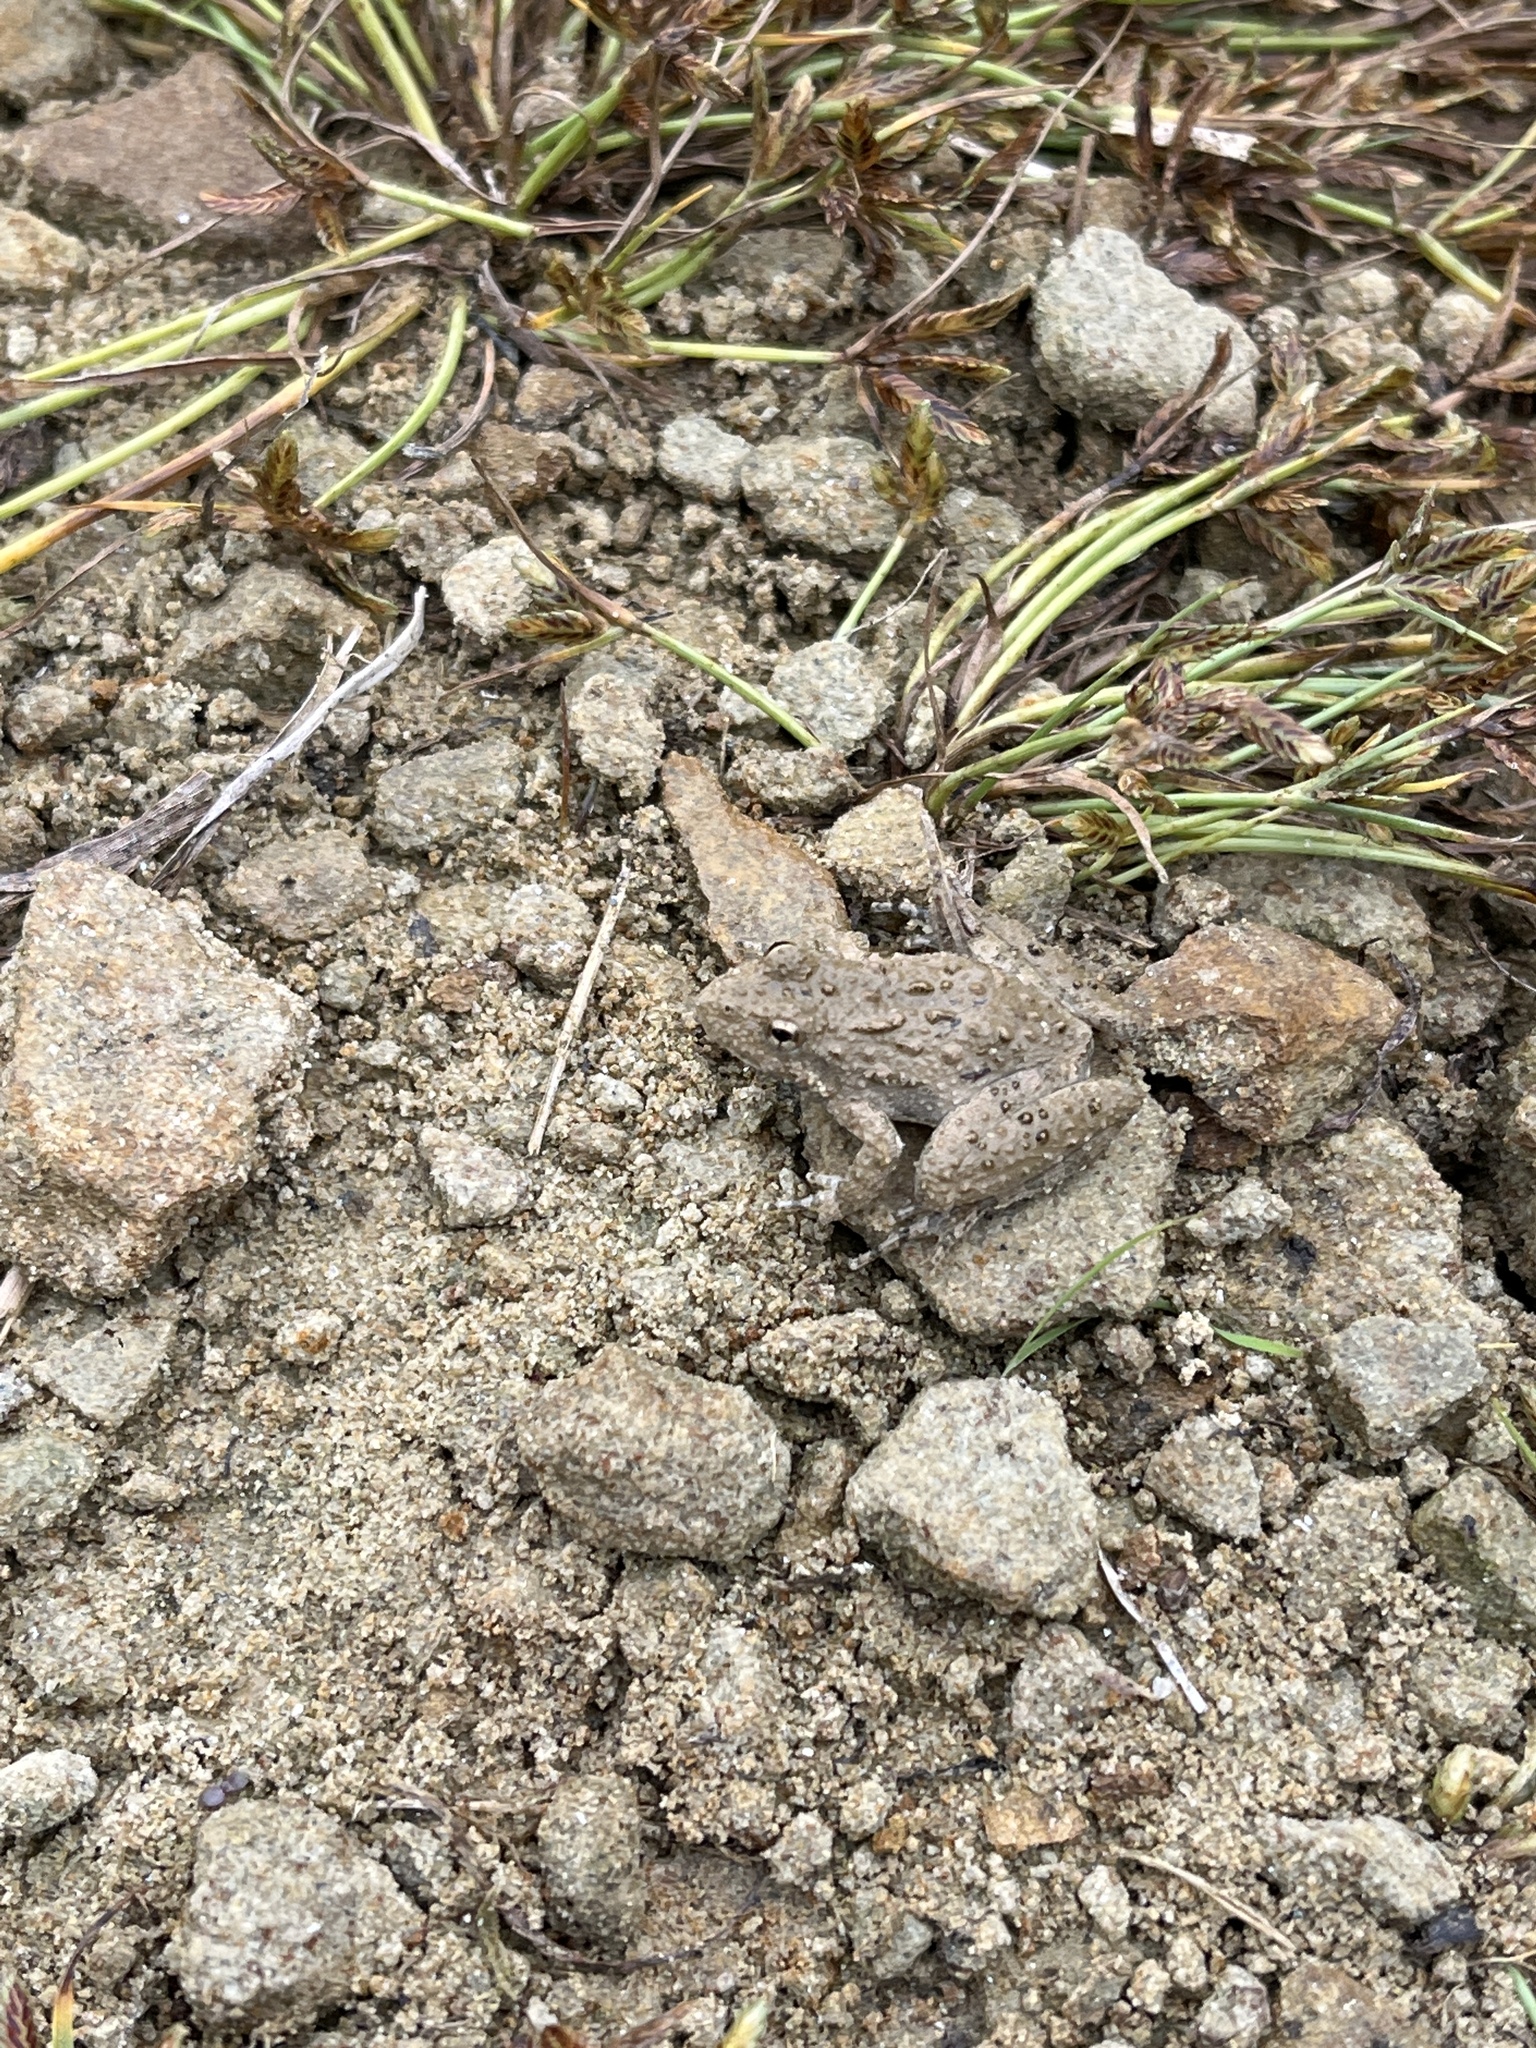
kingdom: Animalia
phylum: Chordata
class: Amphibia
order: Anura
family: Hylidae
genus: Acris
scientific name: Acris blanchardi
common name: Blanchard's cricket frog
